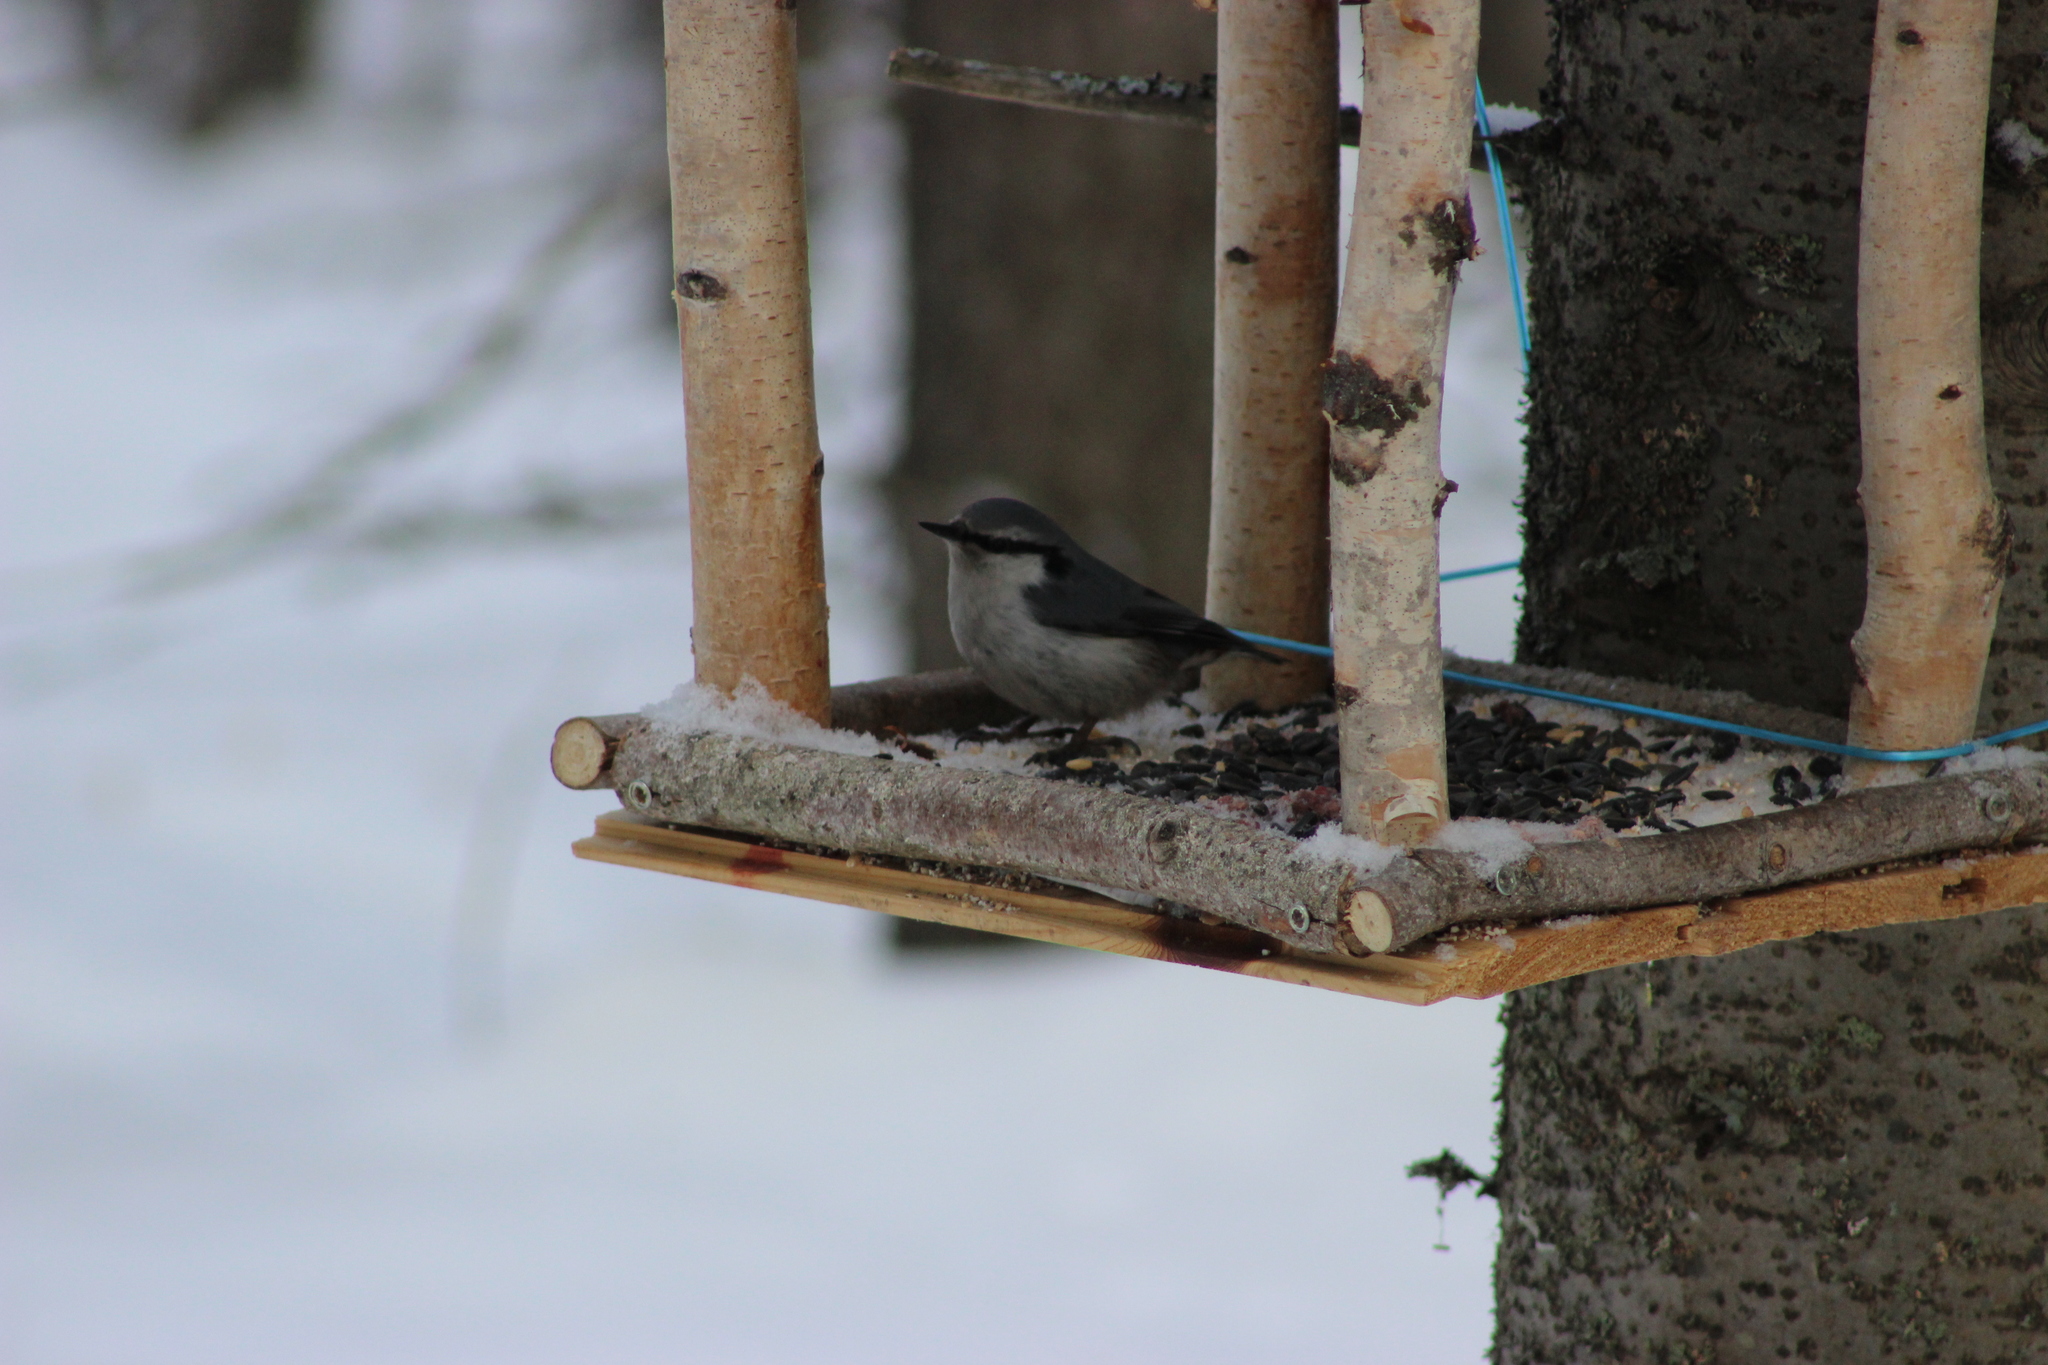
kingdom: Animalia
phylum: Chordata
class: Aves
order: Passeriformes
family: Sittidae
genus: Sitta
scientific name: Sitta europaea
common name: Eurasian nuthatch
